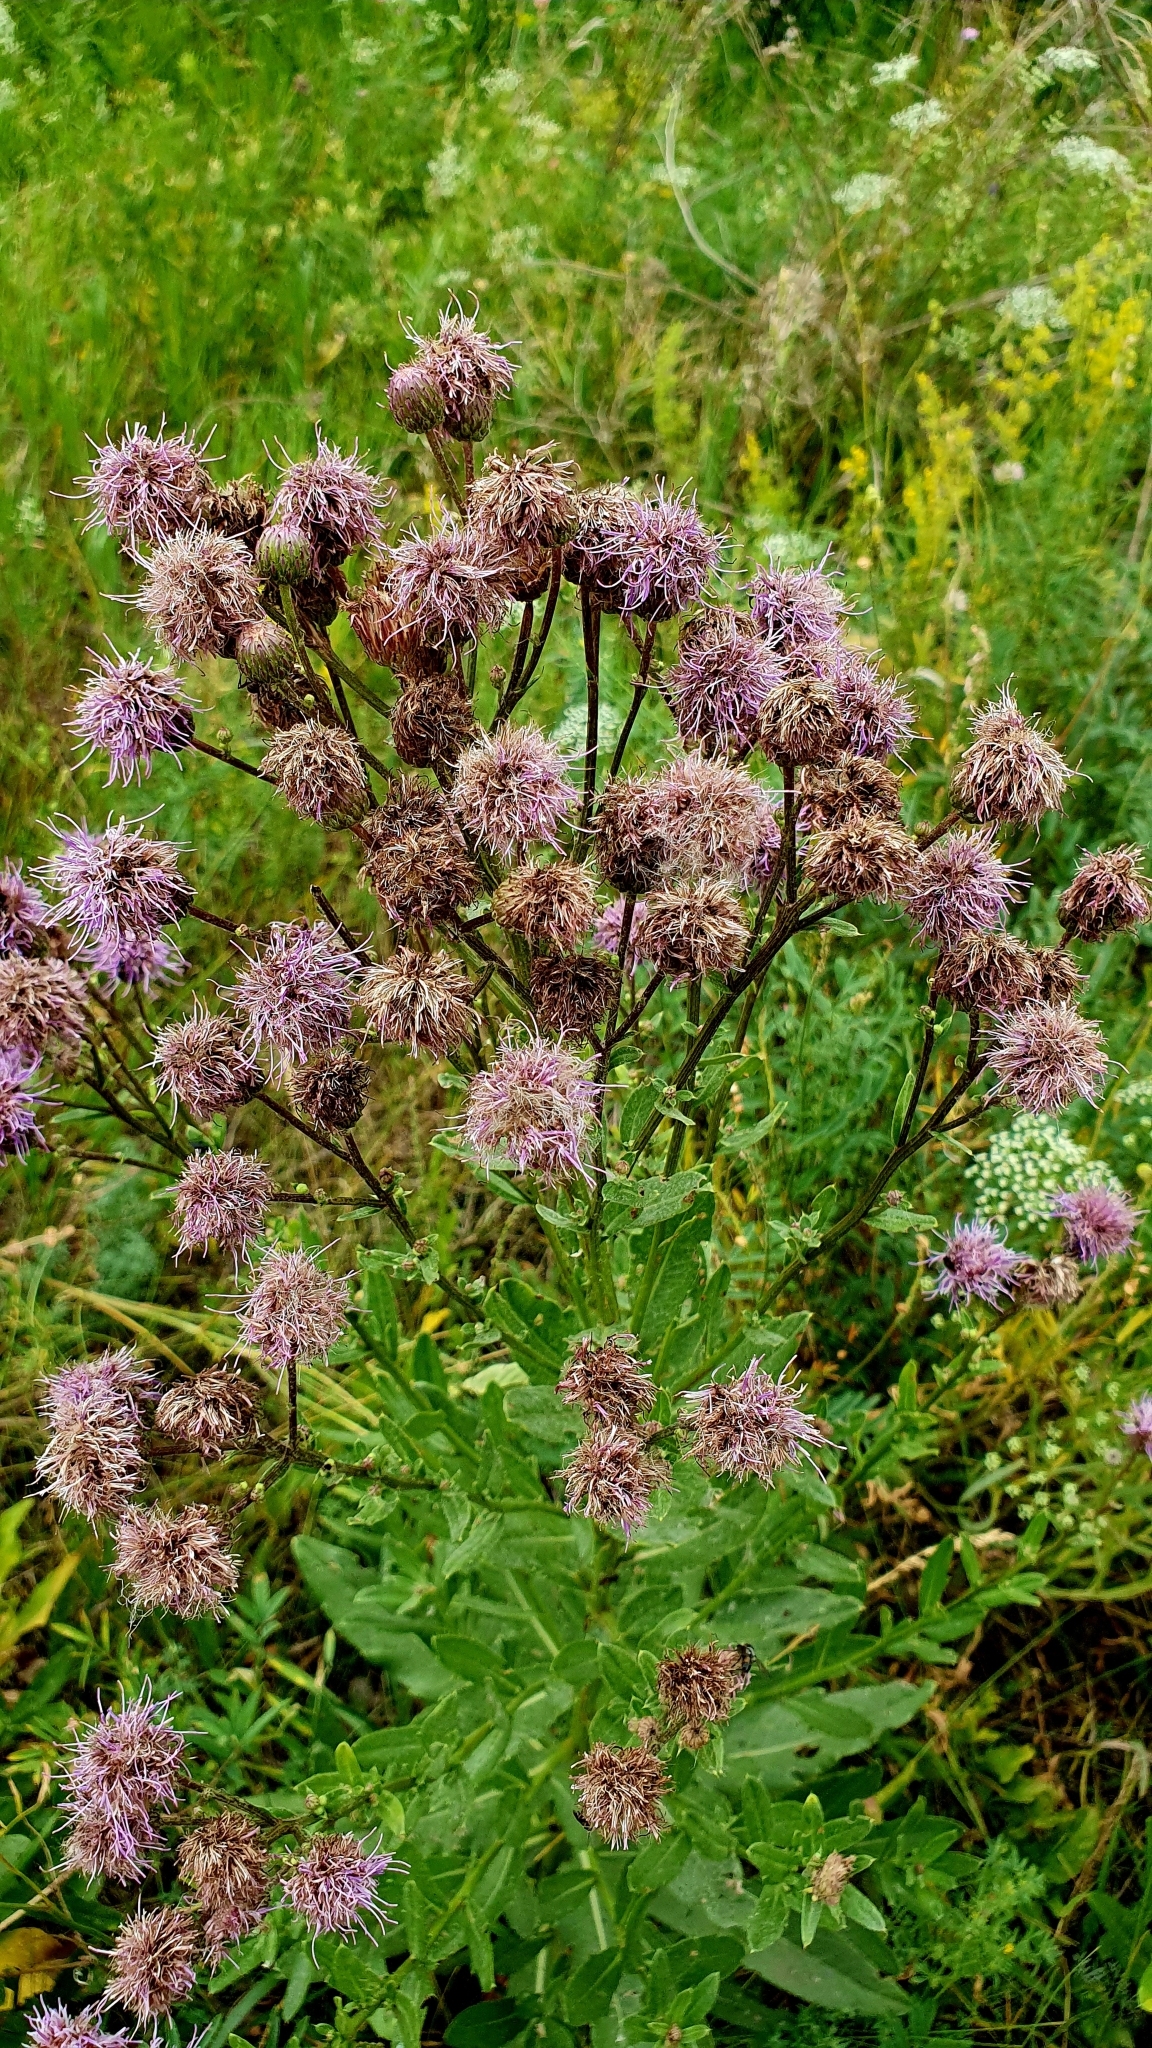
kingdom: Plantae
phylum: Tracheophyta
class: Magnoliopsida
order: Asterales
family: Asteraceae
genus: Cirsium
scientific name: Cirsium arvense
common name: Creeping thistle
